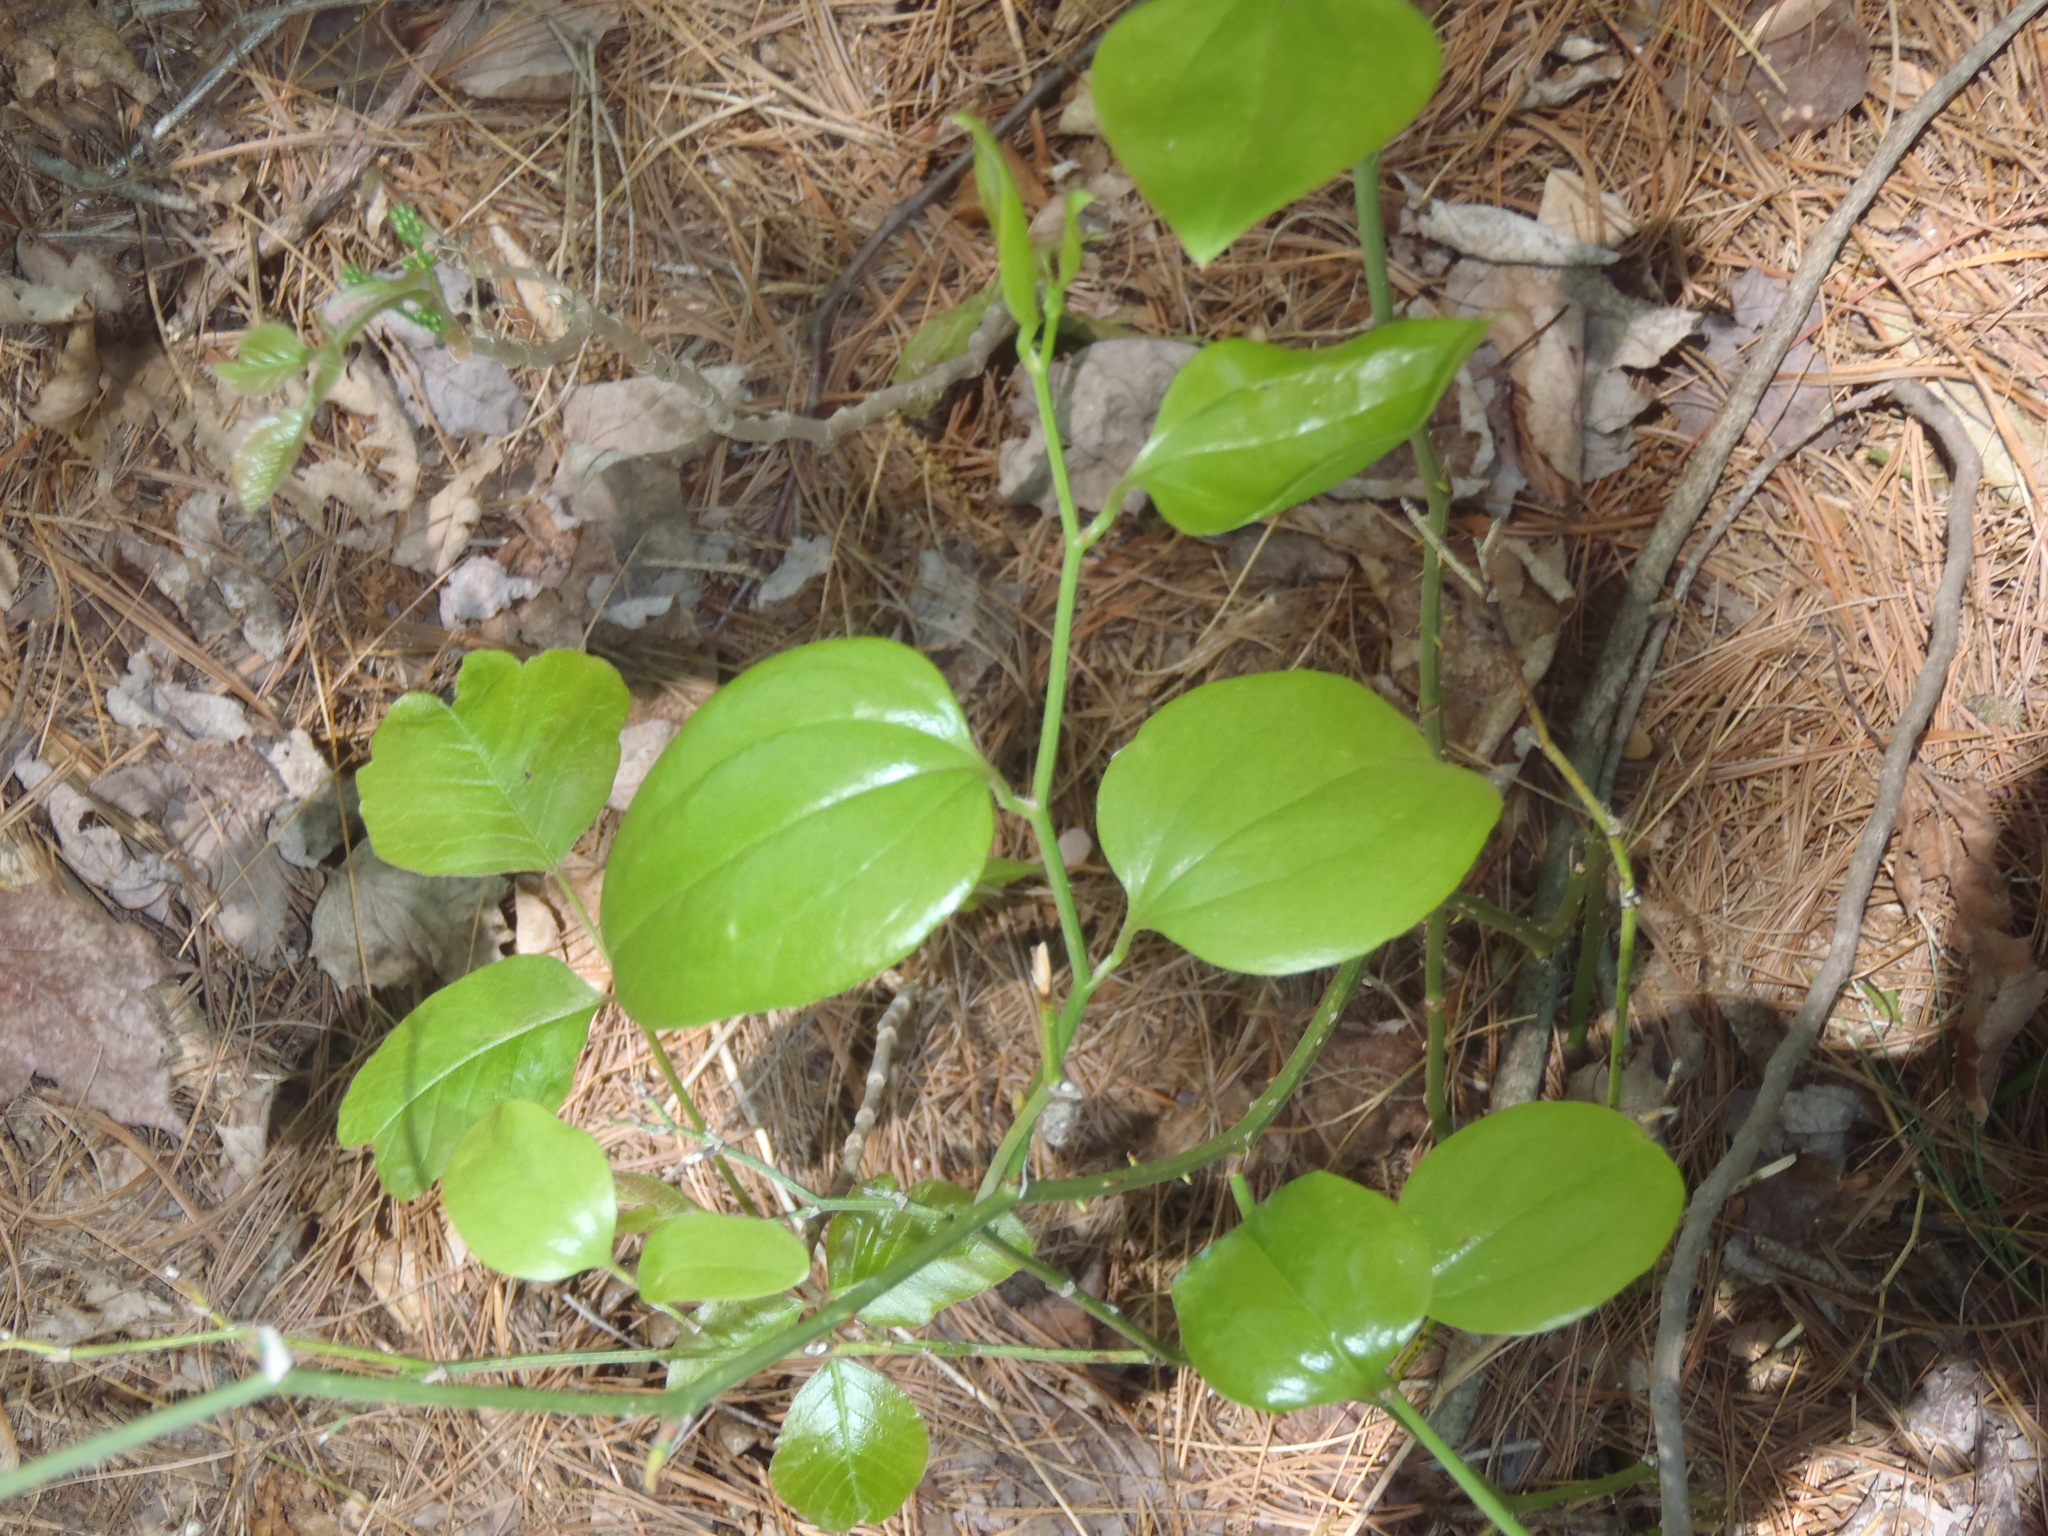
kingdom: Plantae
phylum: Tracheophyta
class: Liliopsida
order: Liliales
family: Smilacaceae
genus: Smilax
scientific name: Smilax rotundifolia
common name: Bullbriar
